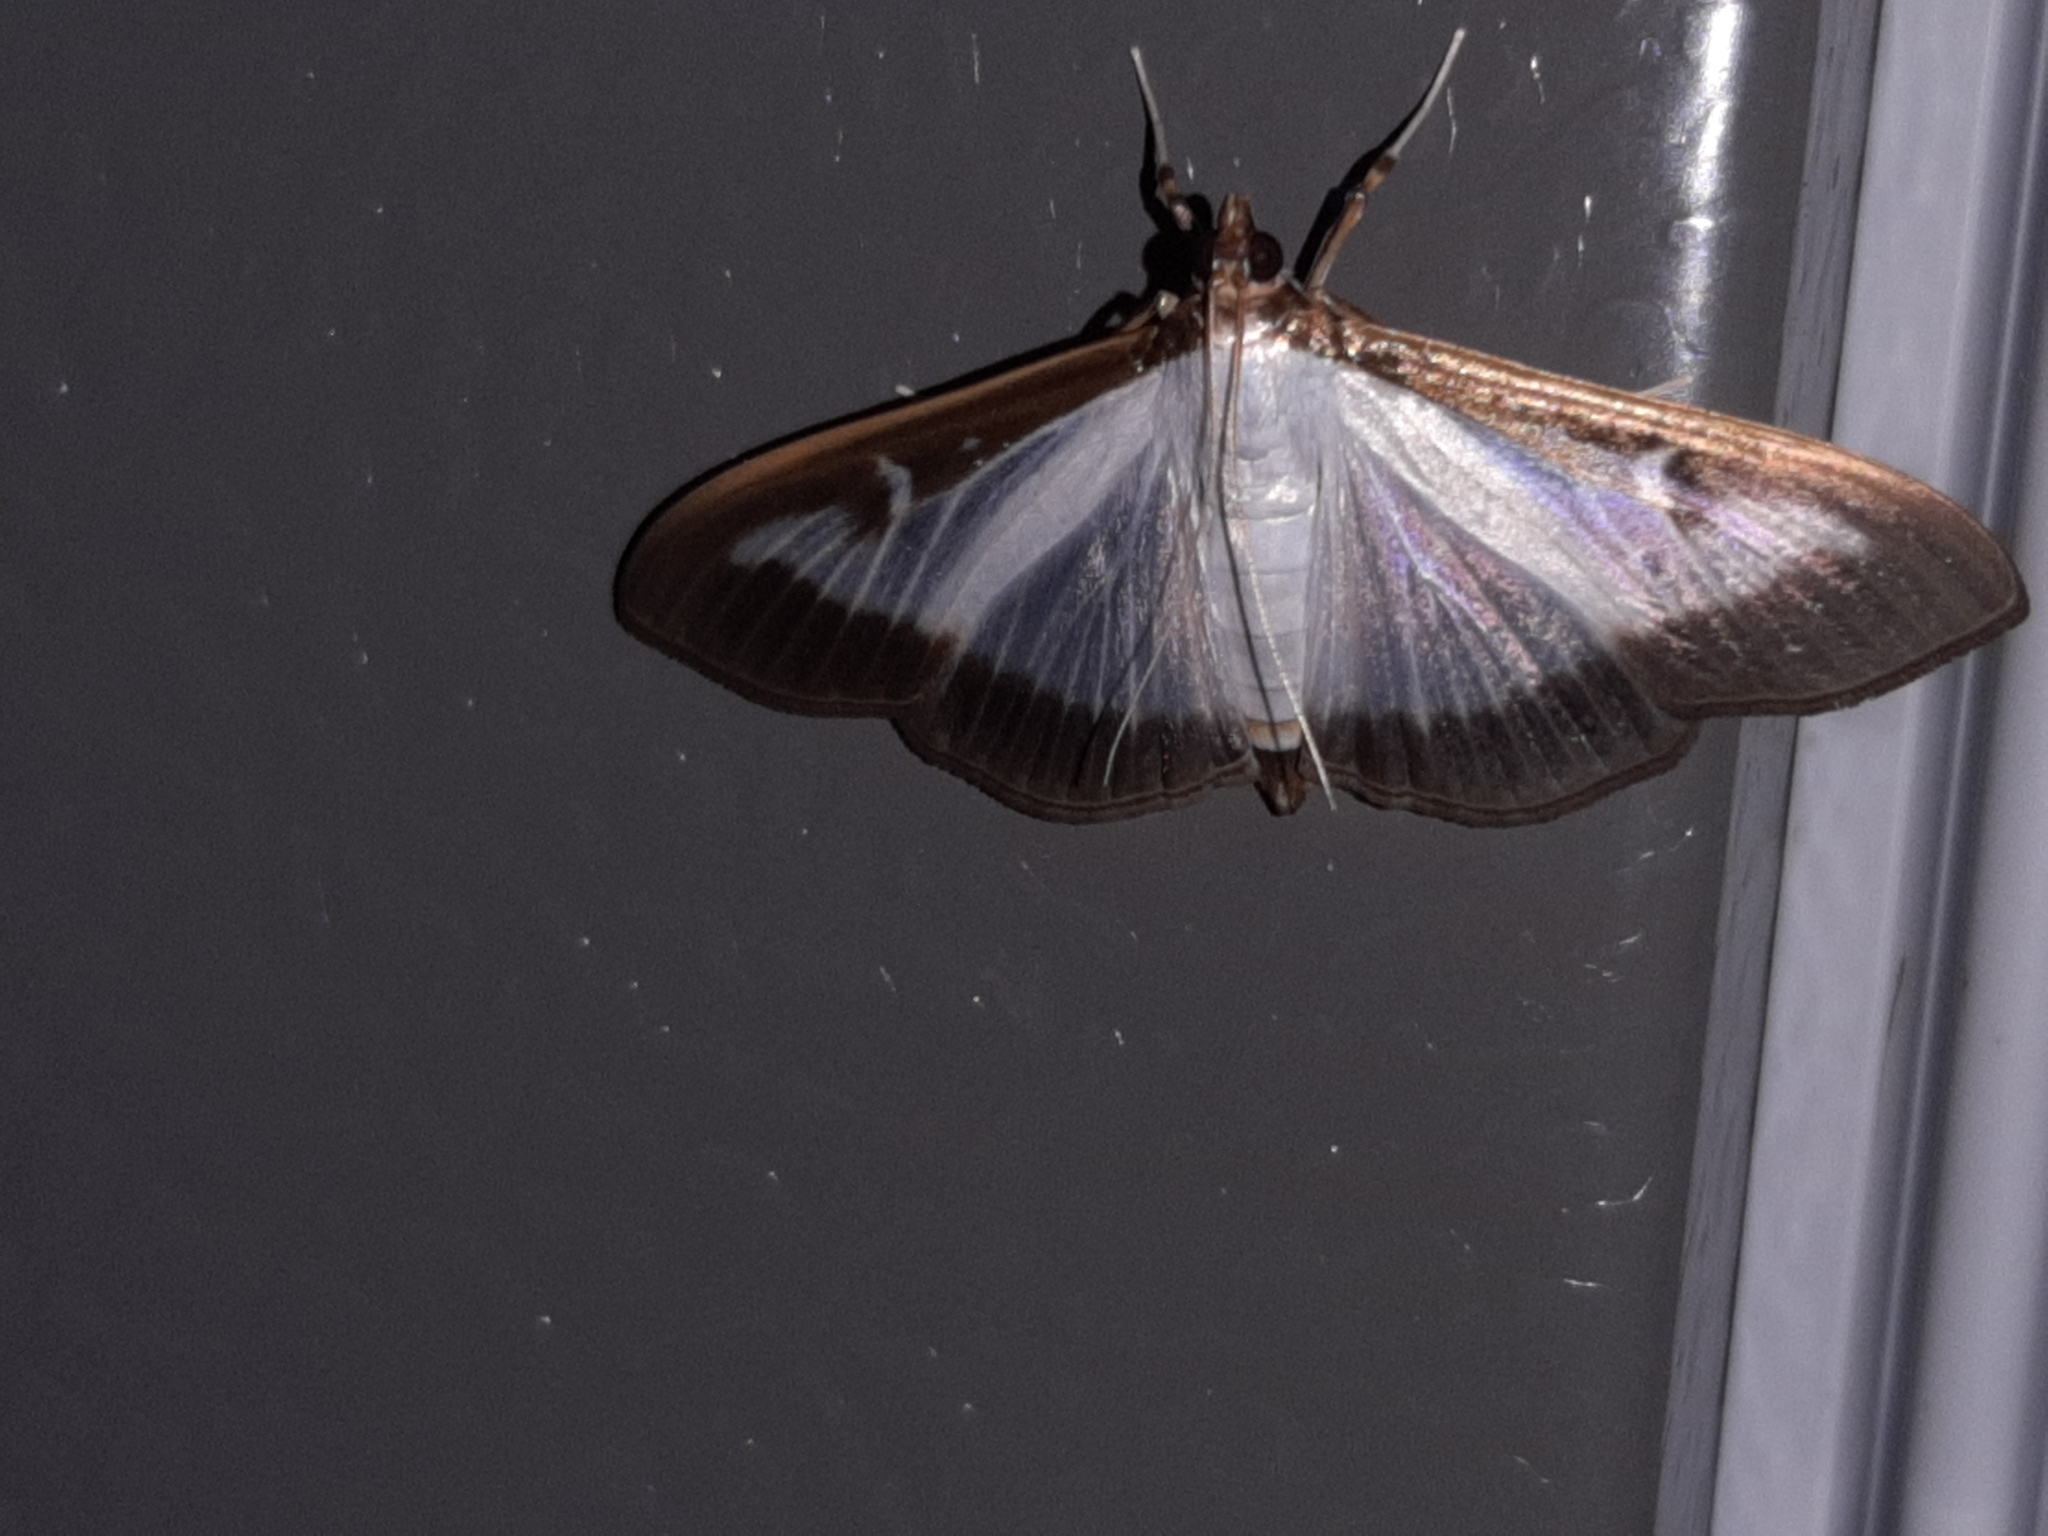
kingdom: Animalia
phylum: Arthropoda
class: Insecta
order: Lepidoptera
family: Crambidae
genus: Cydalima
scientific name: Cydalima perspectalis
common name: Box tree moth
